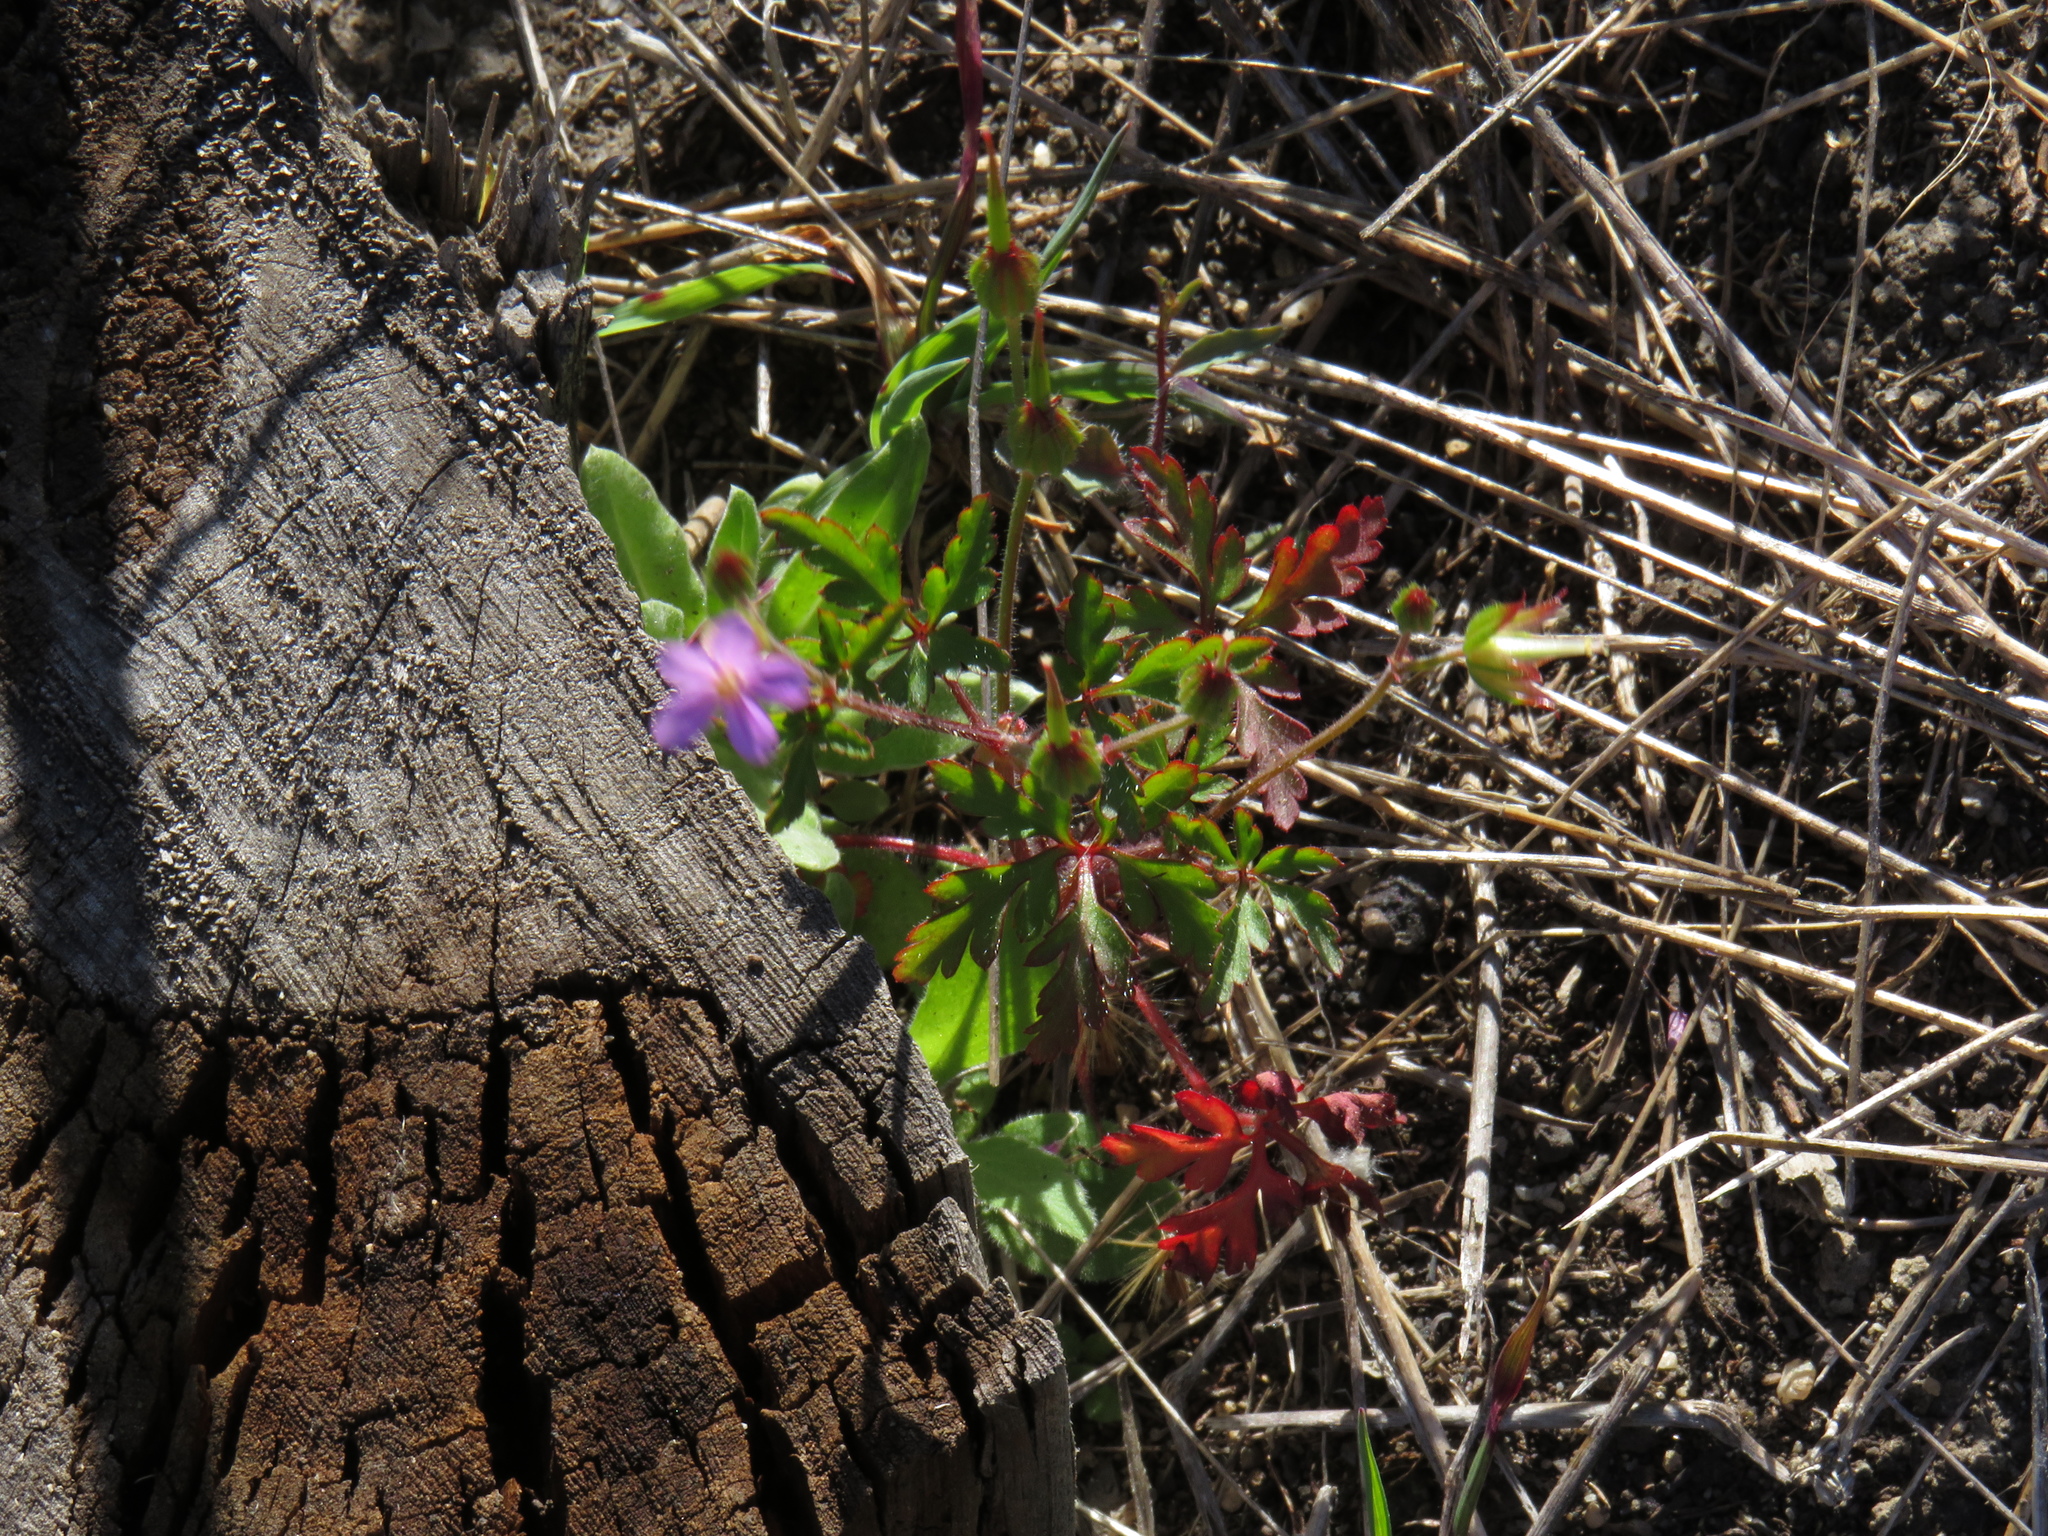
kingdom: Plantae
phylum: Tracheophyta
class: Magnoliopsida
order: Geraniales
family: Geraniaceae
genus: Geranium
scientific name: Geranium purpureum
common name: Little-robin
